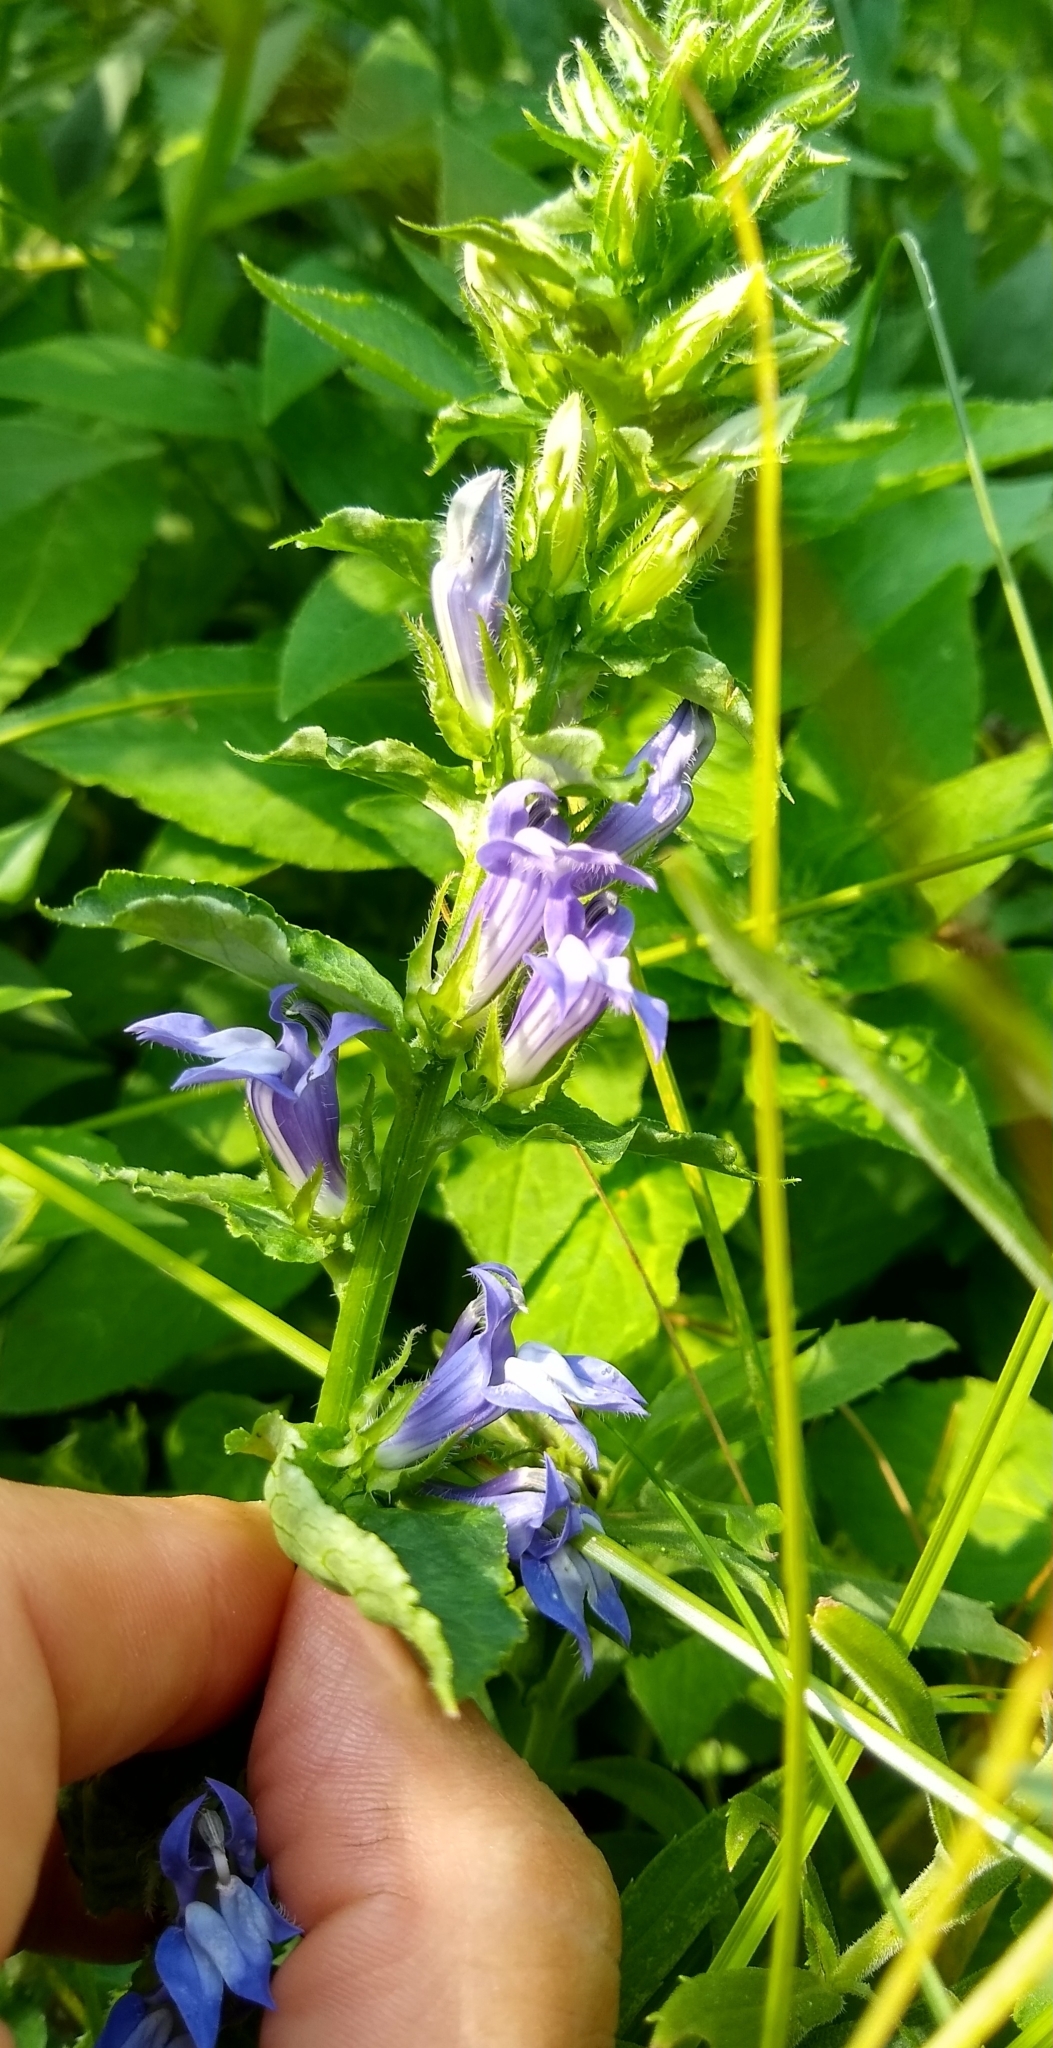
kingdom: Plantae
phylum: Tracheophyta
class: Magnoliopsida
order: Asterales
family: Campanulaceae
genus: Lobelia
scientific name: Lobelia siphilitica
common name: Great lobelia
